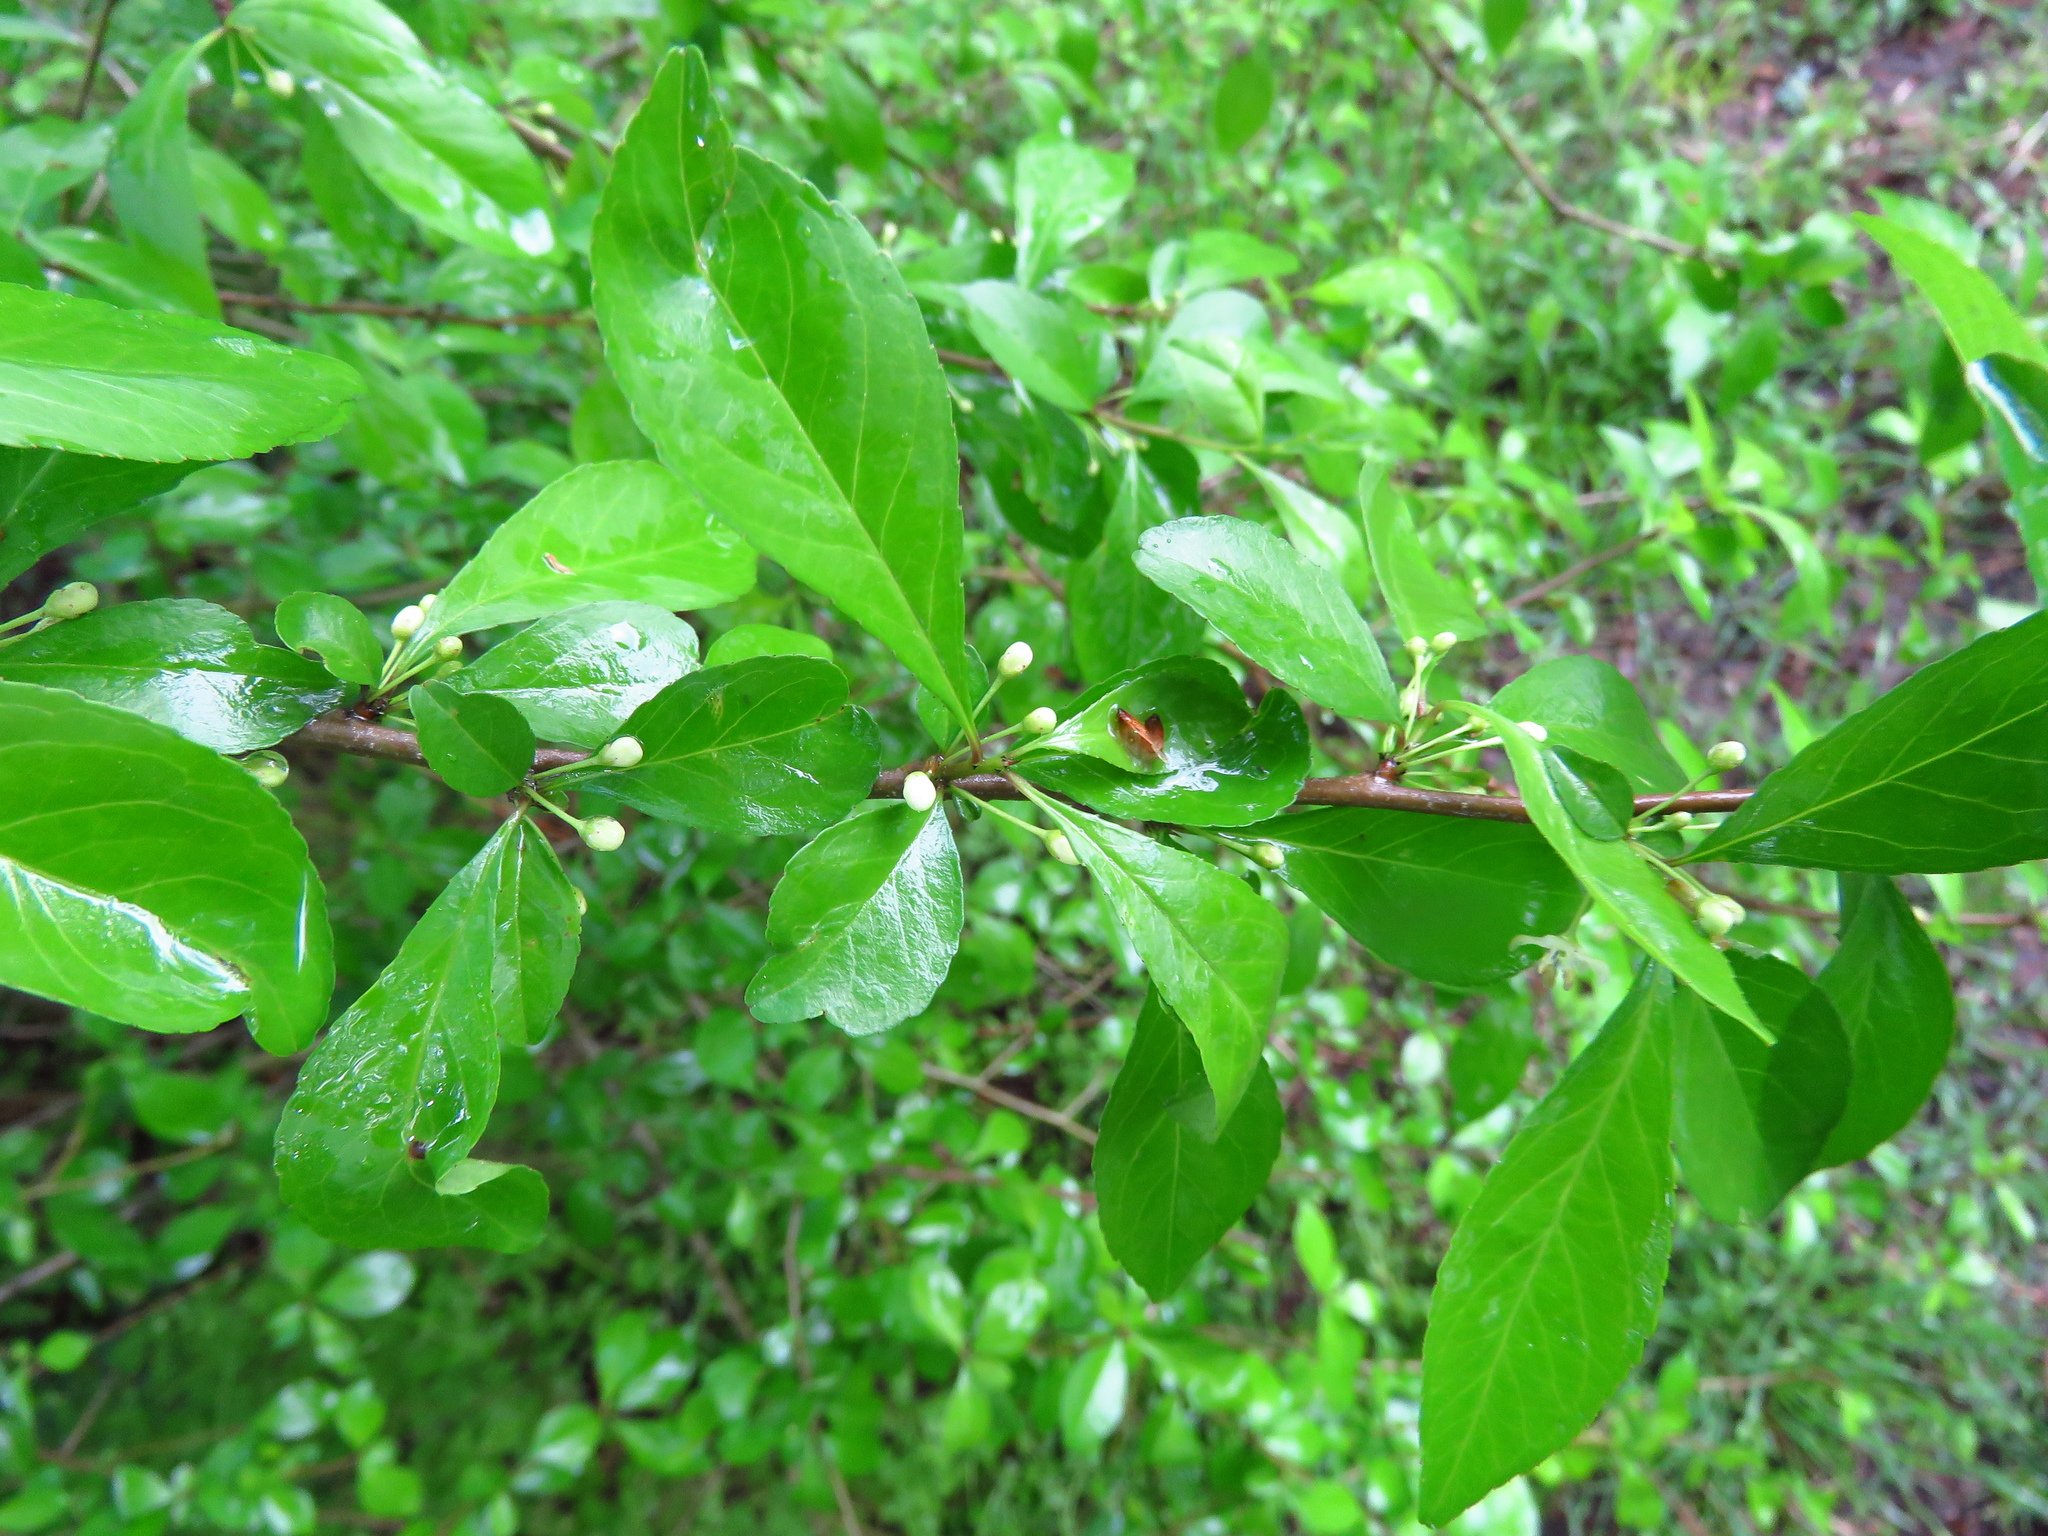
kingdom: Plantae
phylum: Tracheophyta
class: Magnoliopsida
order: Aquifoliales
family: Aquifoliaceae
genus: Ilex
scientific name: Ilex decidua
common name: Possum-haw
